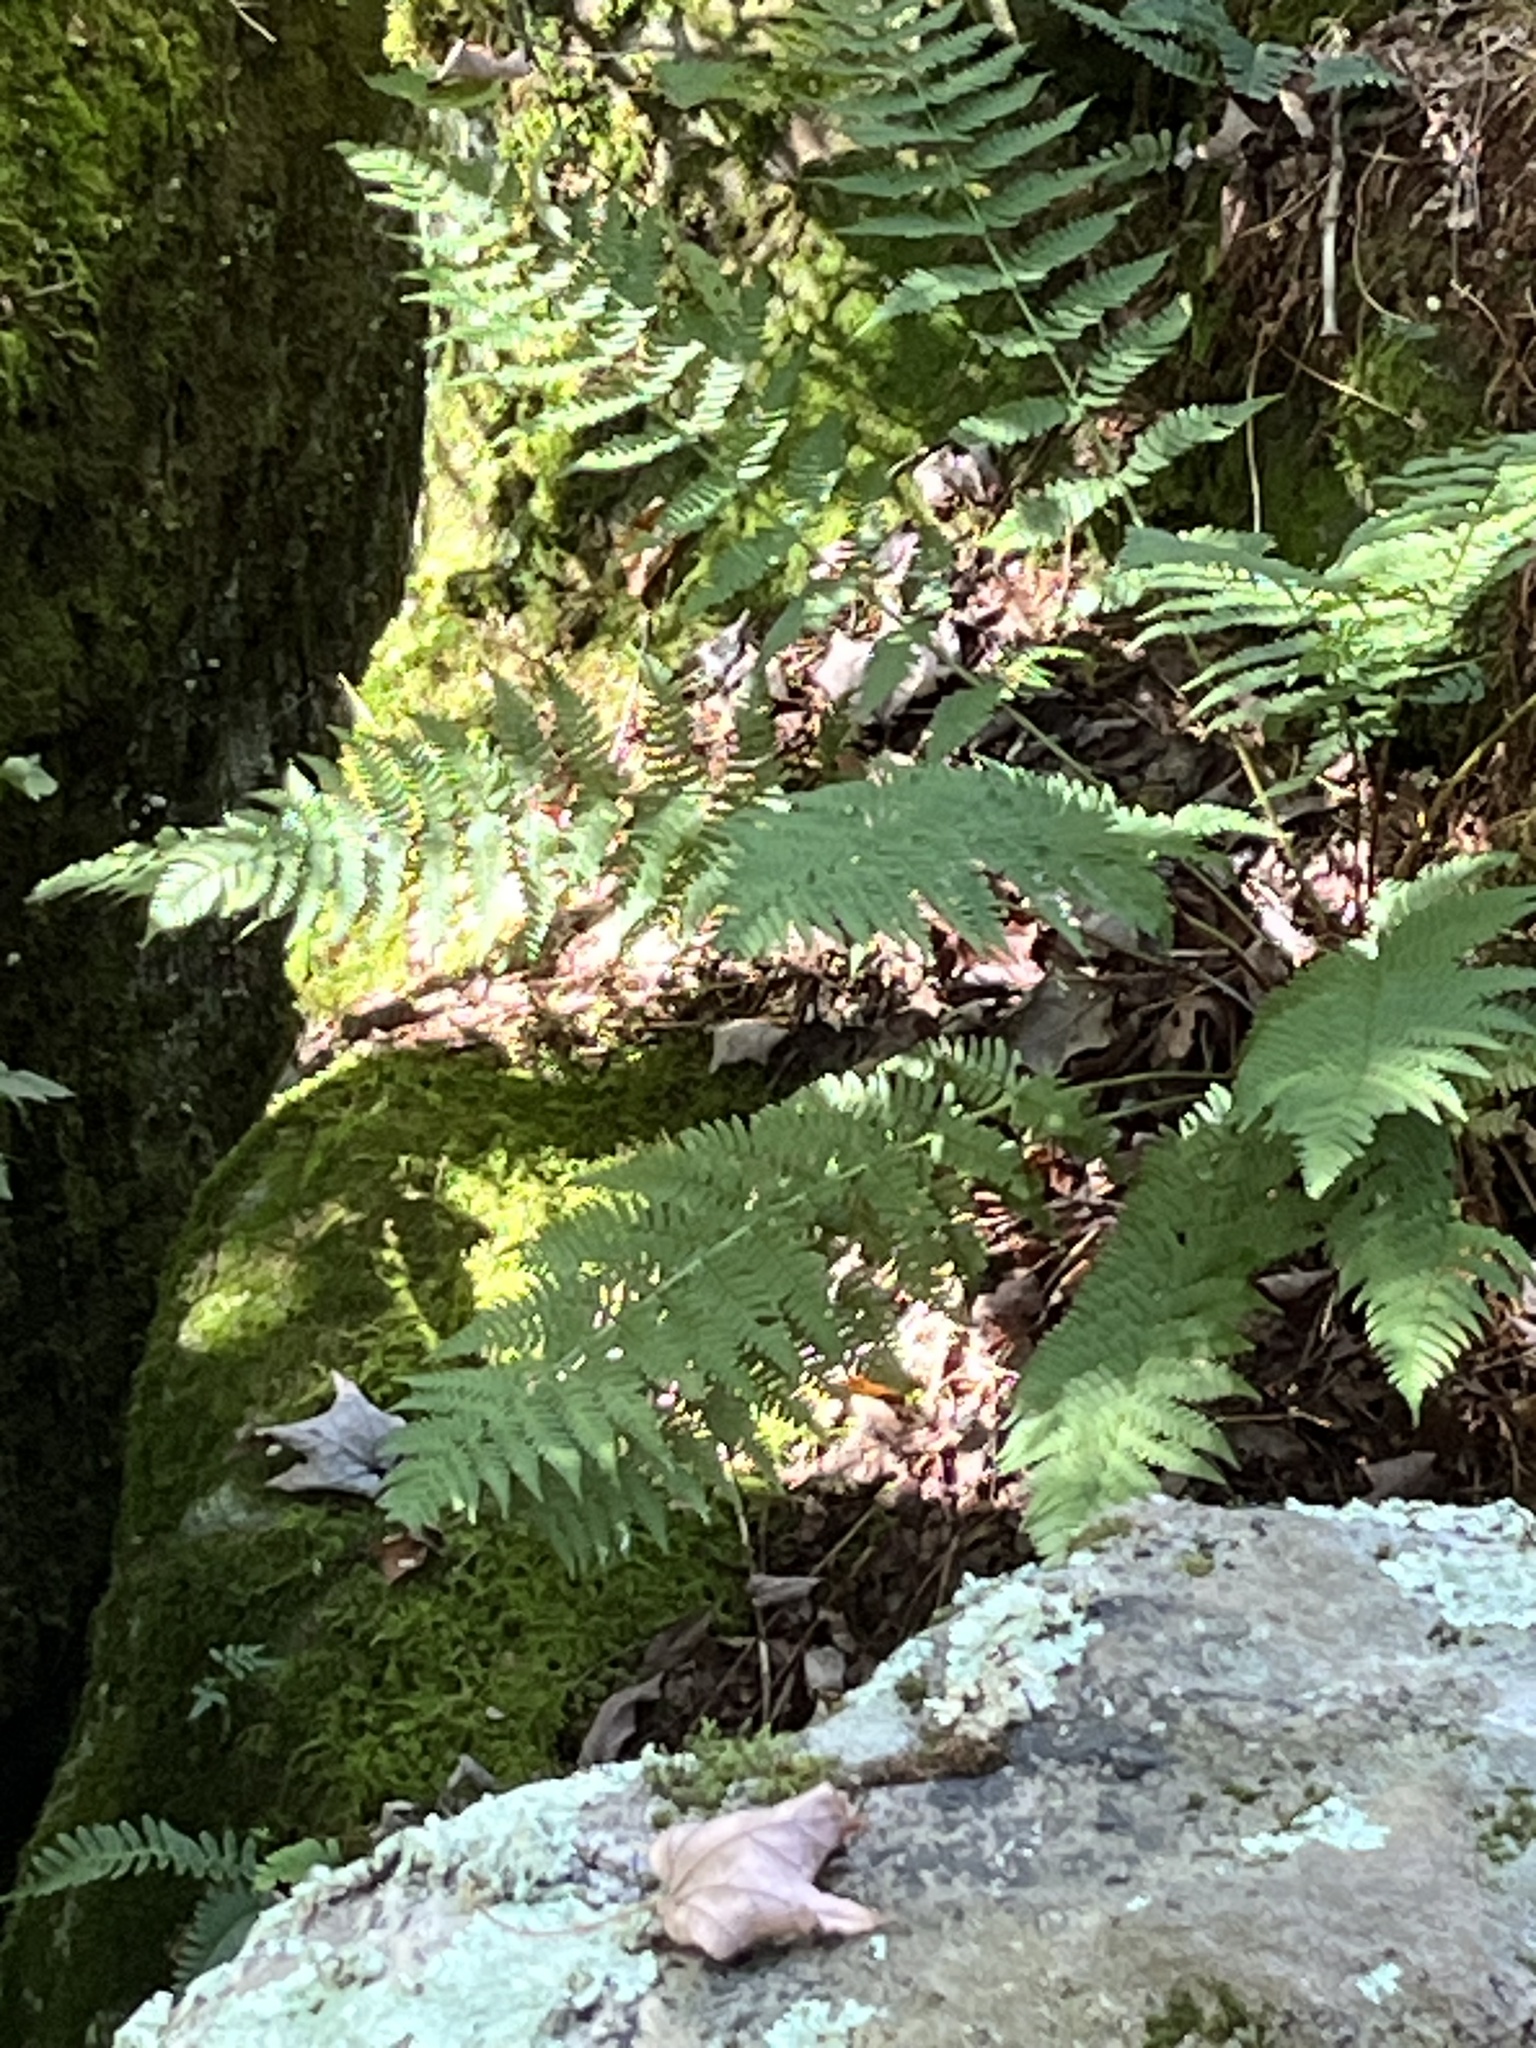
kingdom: Plantae
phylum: Tracheophyta
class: Polypodiopsida
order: Polypodiales
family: Dryopteridaceae
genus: Dryopteris
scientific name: Dryopteris marginalis
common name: Marginal wood fern
